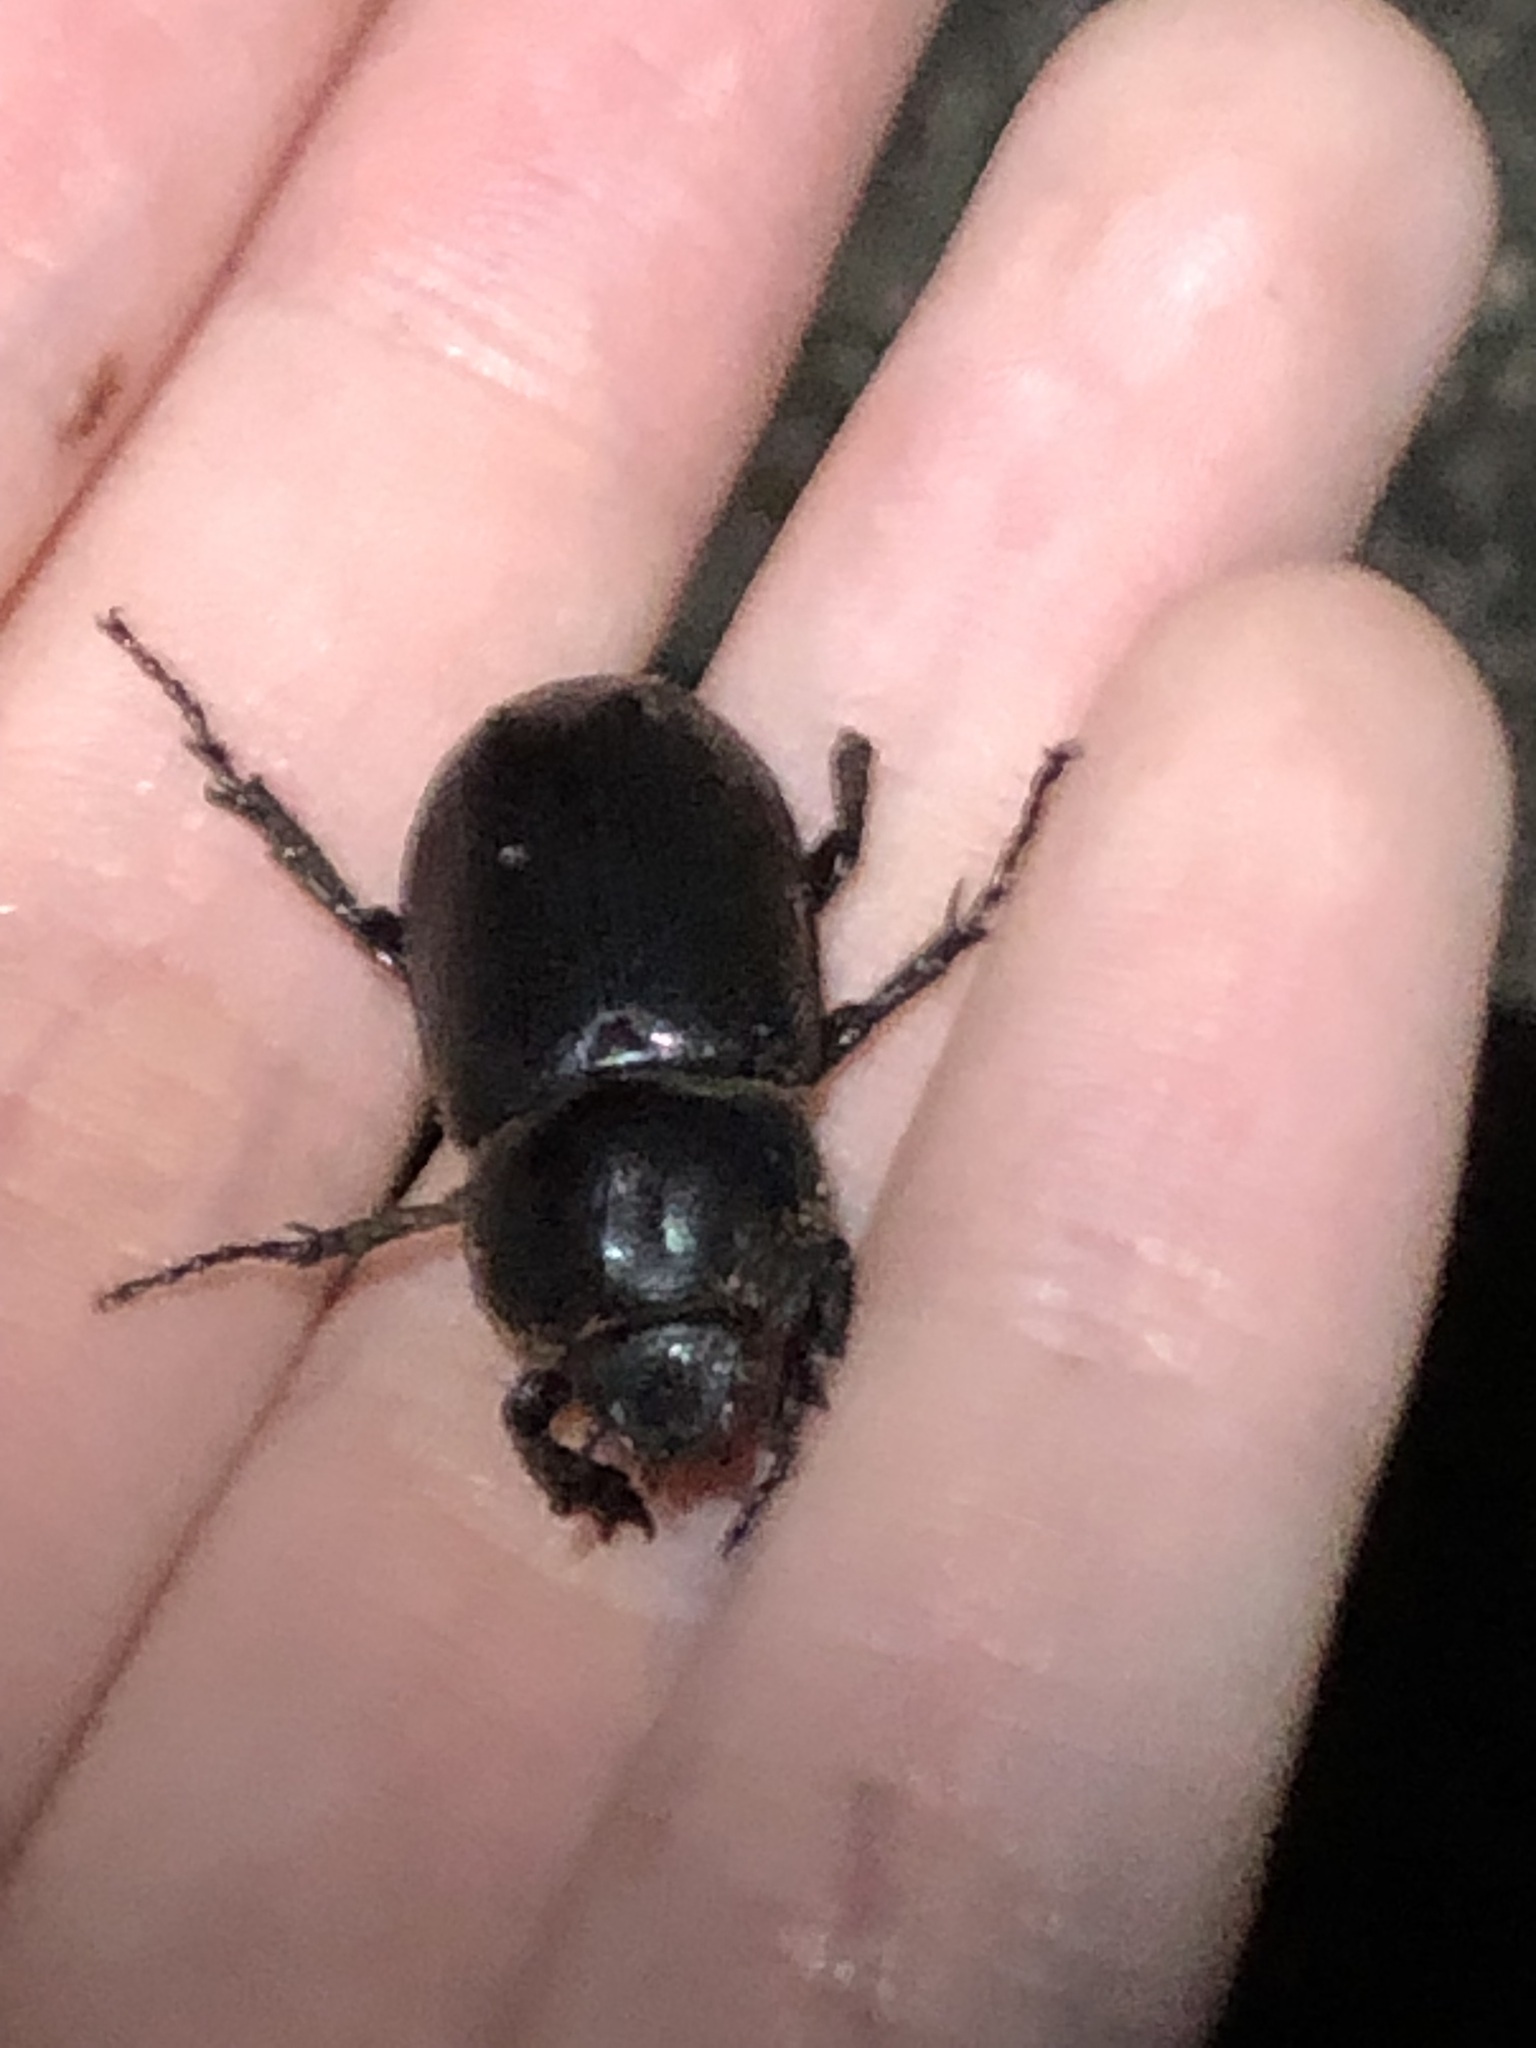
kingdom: Animalia
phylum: Arthropoda
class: Insecta
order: Coleoptera
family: Scarabaeidae
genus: Eophileurus
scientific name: Eophileurus chinensis
